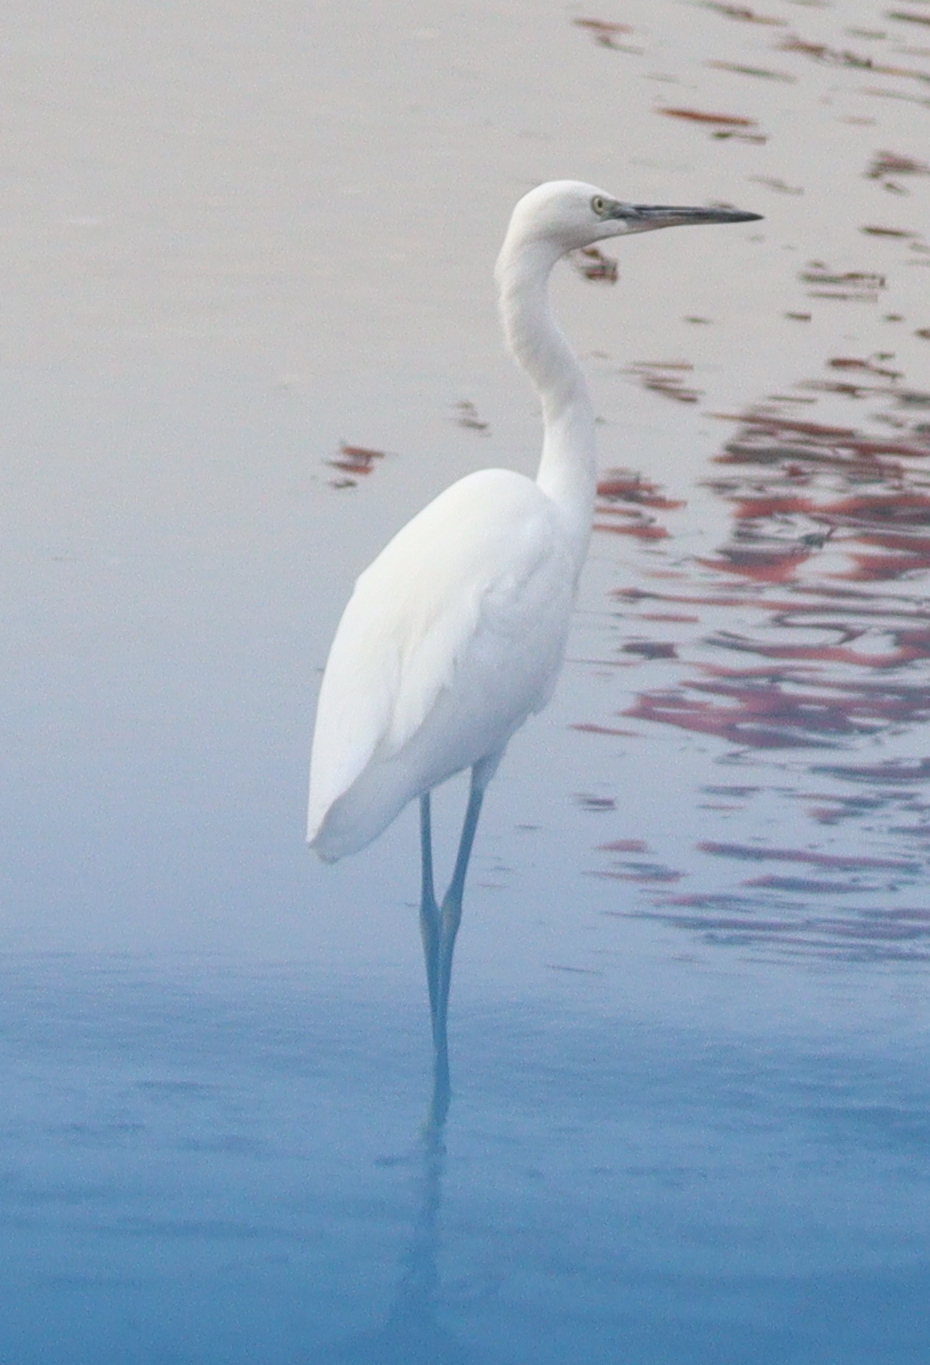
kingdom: Animalia
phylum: Chordata
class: Aves
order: Pelecaniformes
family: Ardeidae
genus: Egretta
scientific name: Egretta garzetta
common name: Little egret
